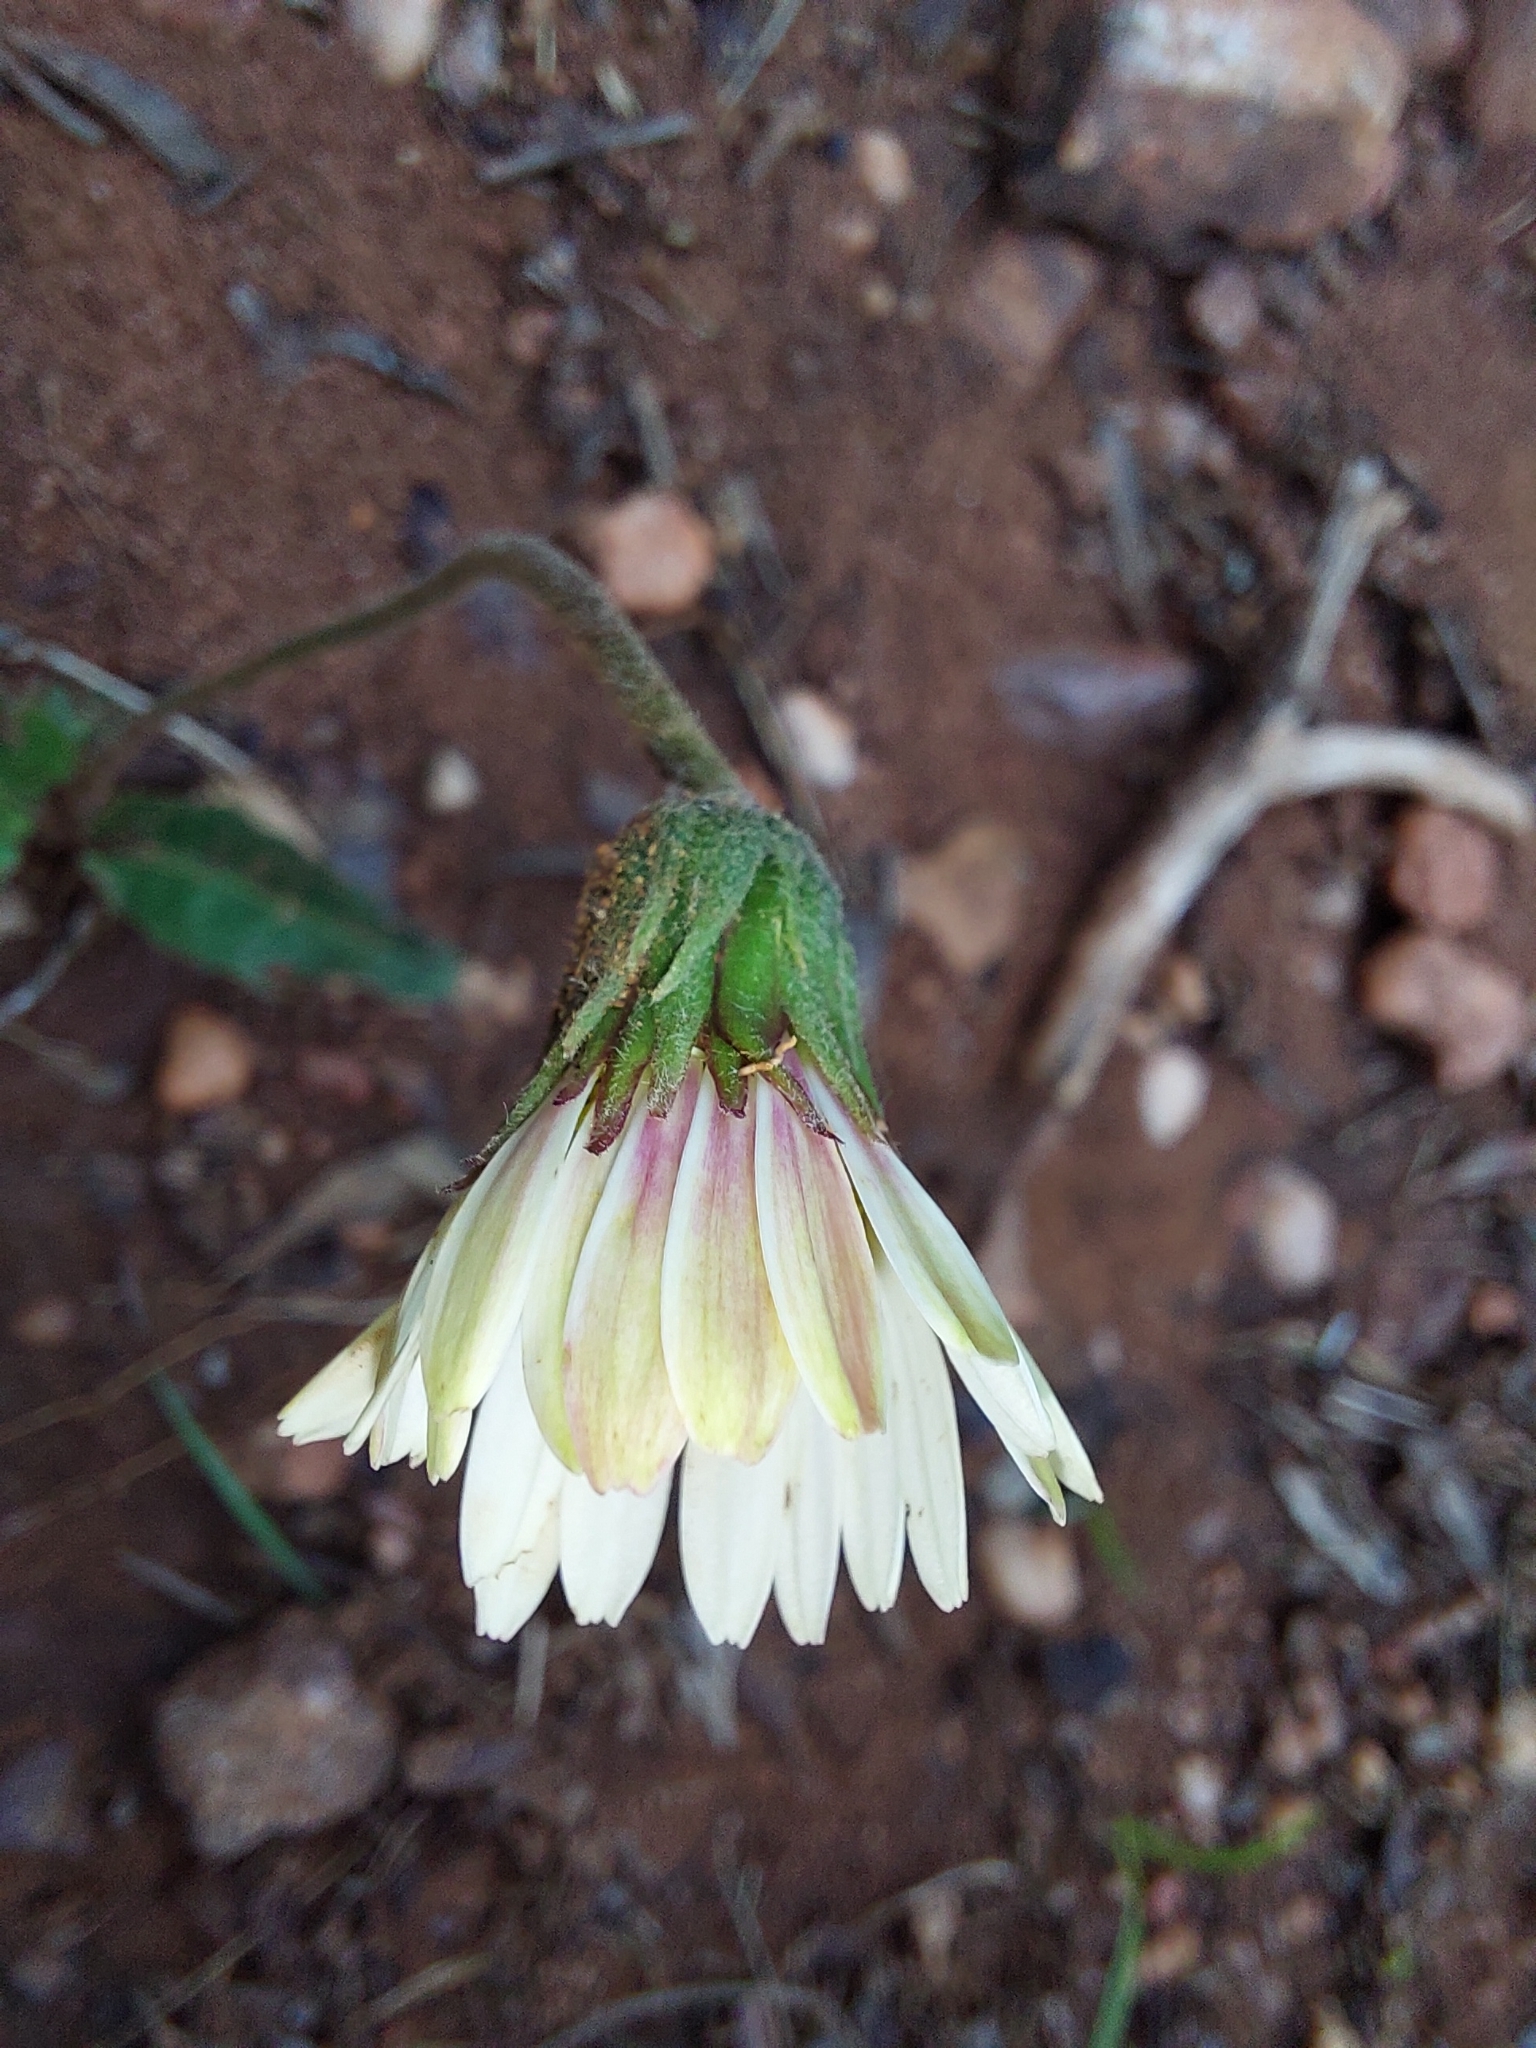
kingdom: Plantae
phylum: Tracheophyta
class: Magnoliopsida
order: Asterales
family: Asteraceae
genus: Gerbera
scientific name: Gerbera ambigua
